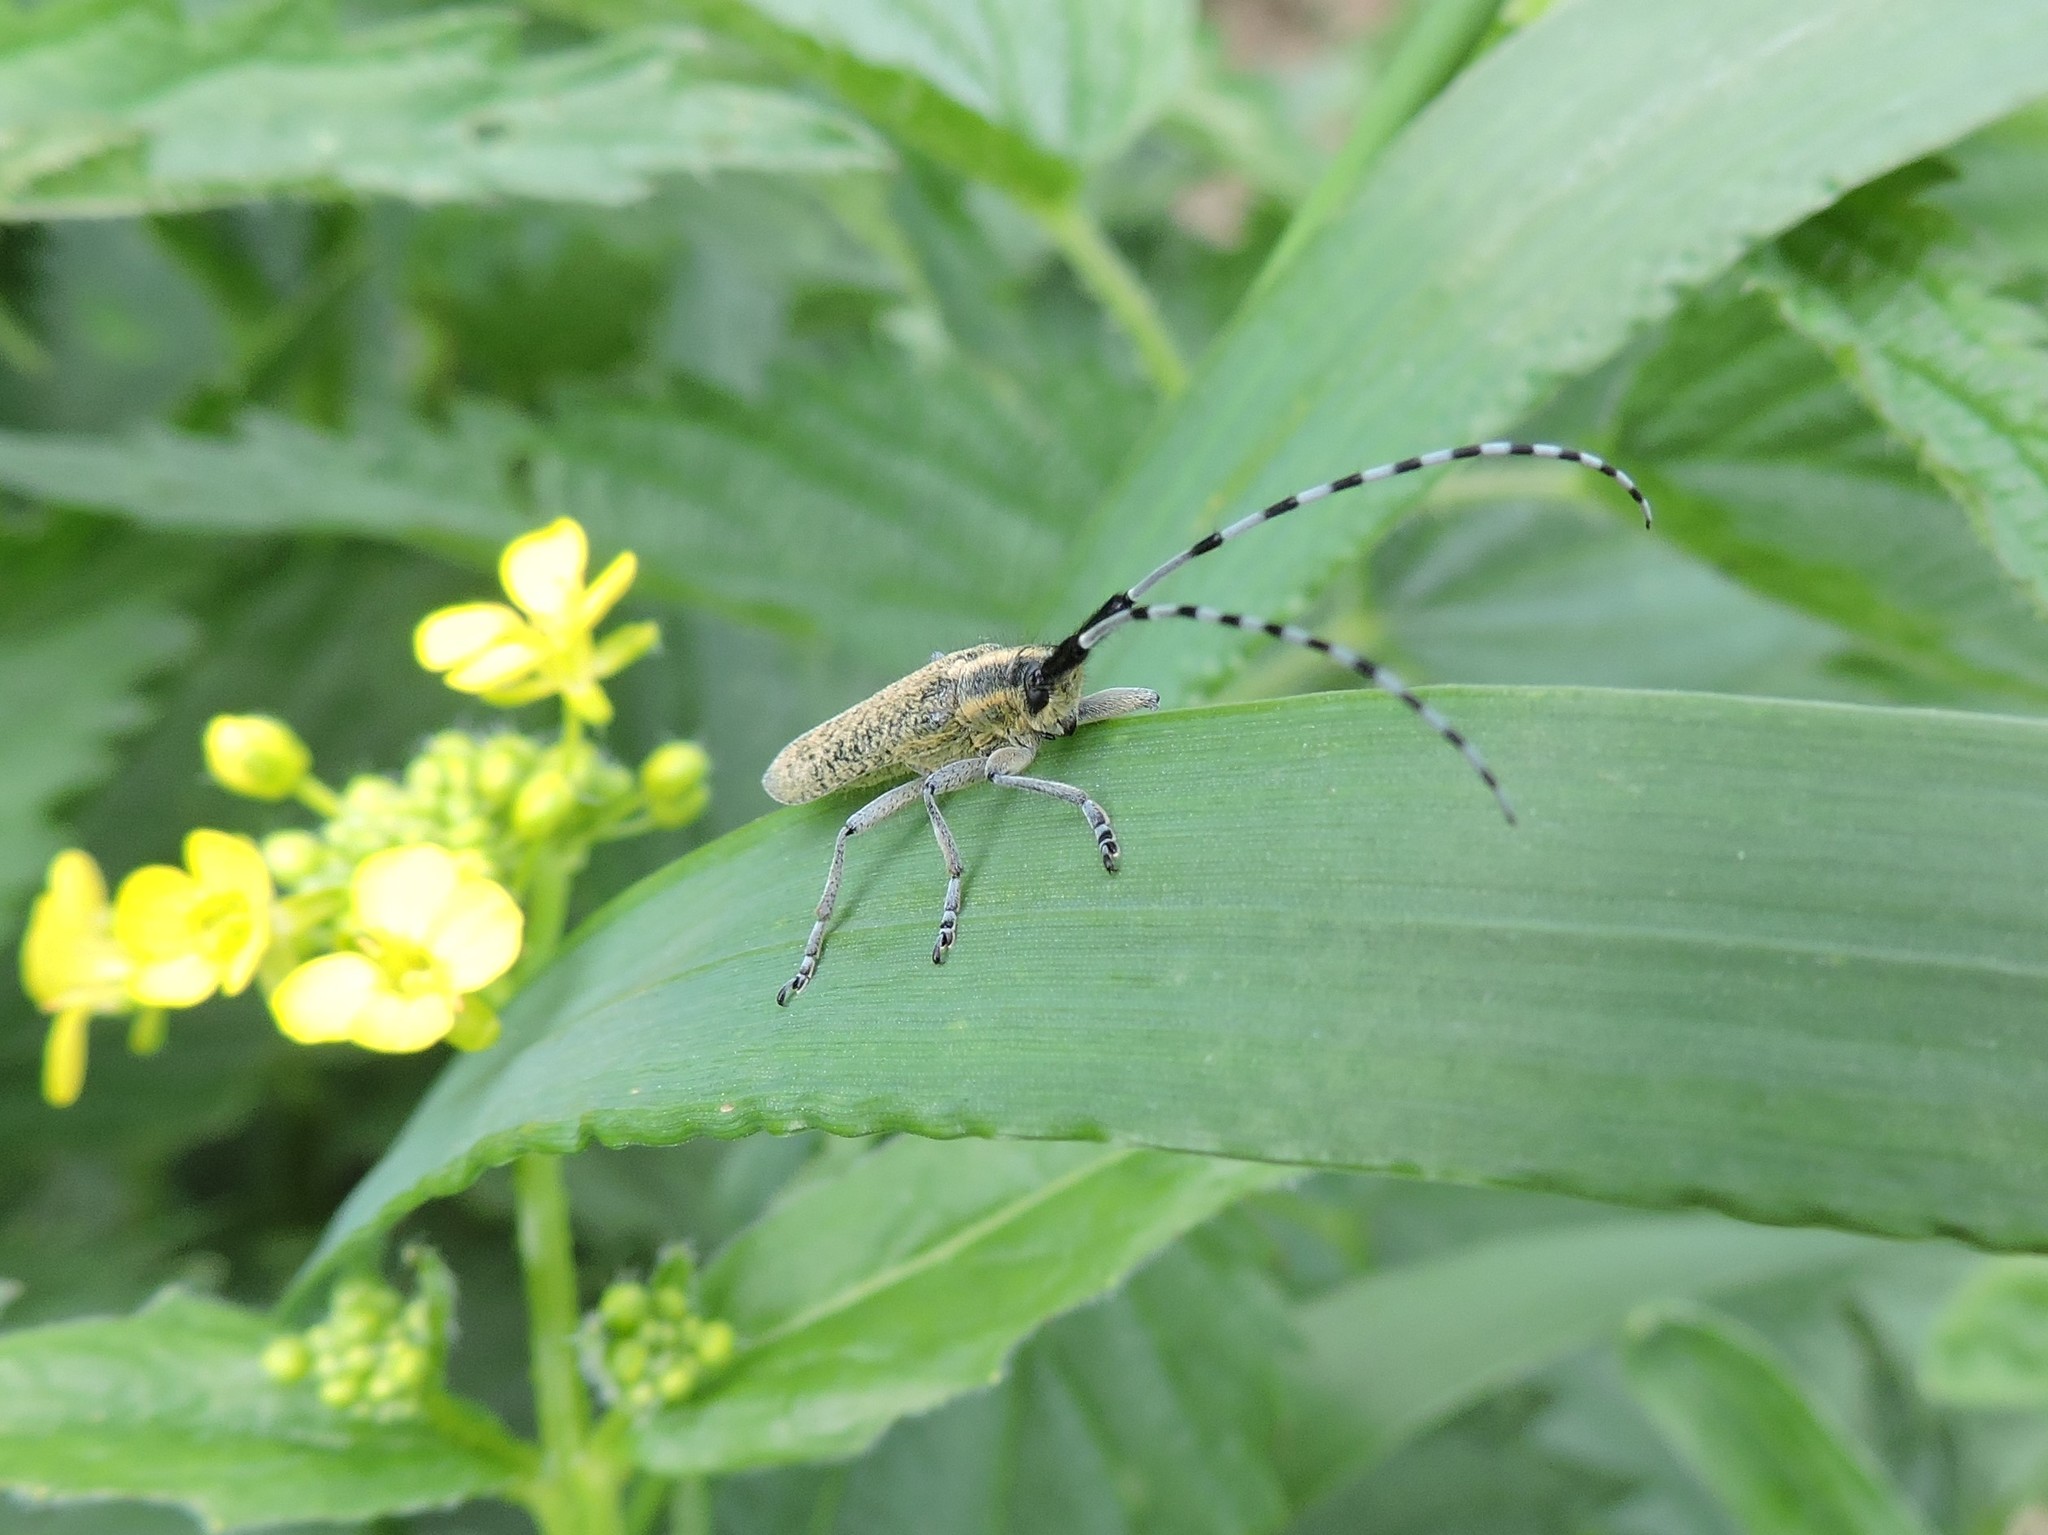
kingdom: Animalia
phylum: Arthropoda
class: Insecta
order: Coleoptera
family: Cerambycidae
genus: Agapanthia
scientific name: Agapanthia villosoviridescens
